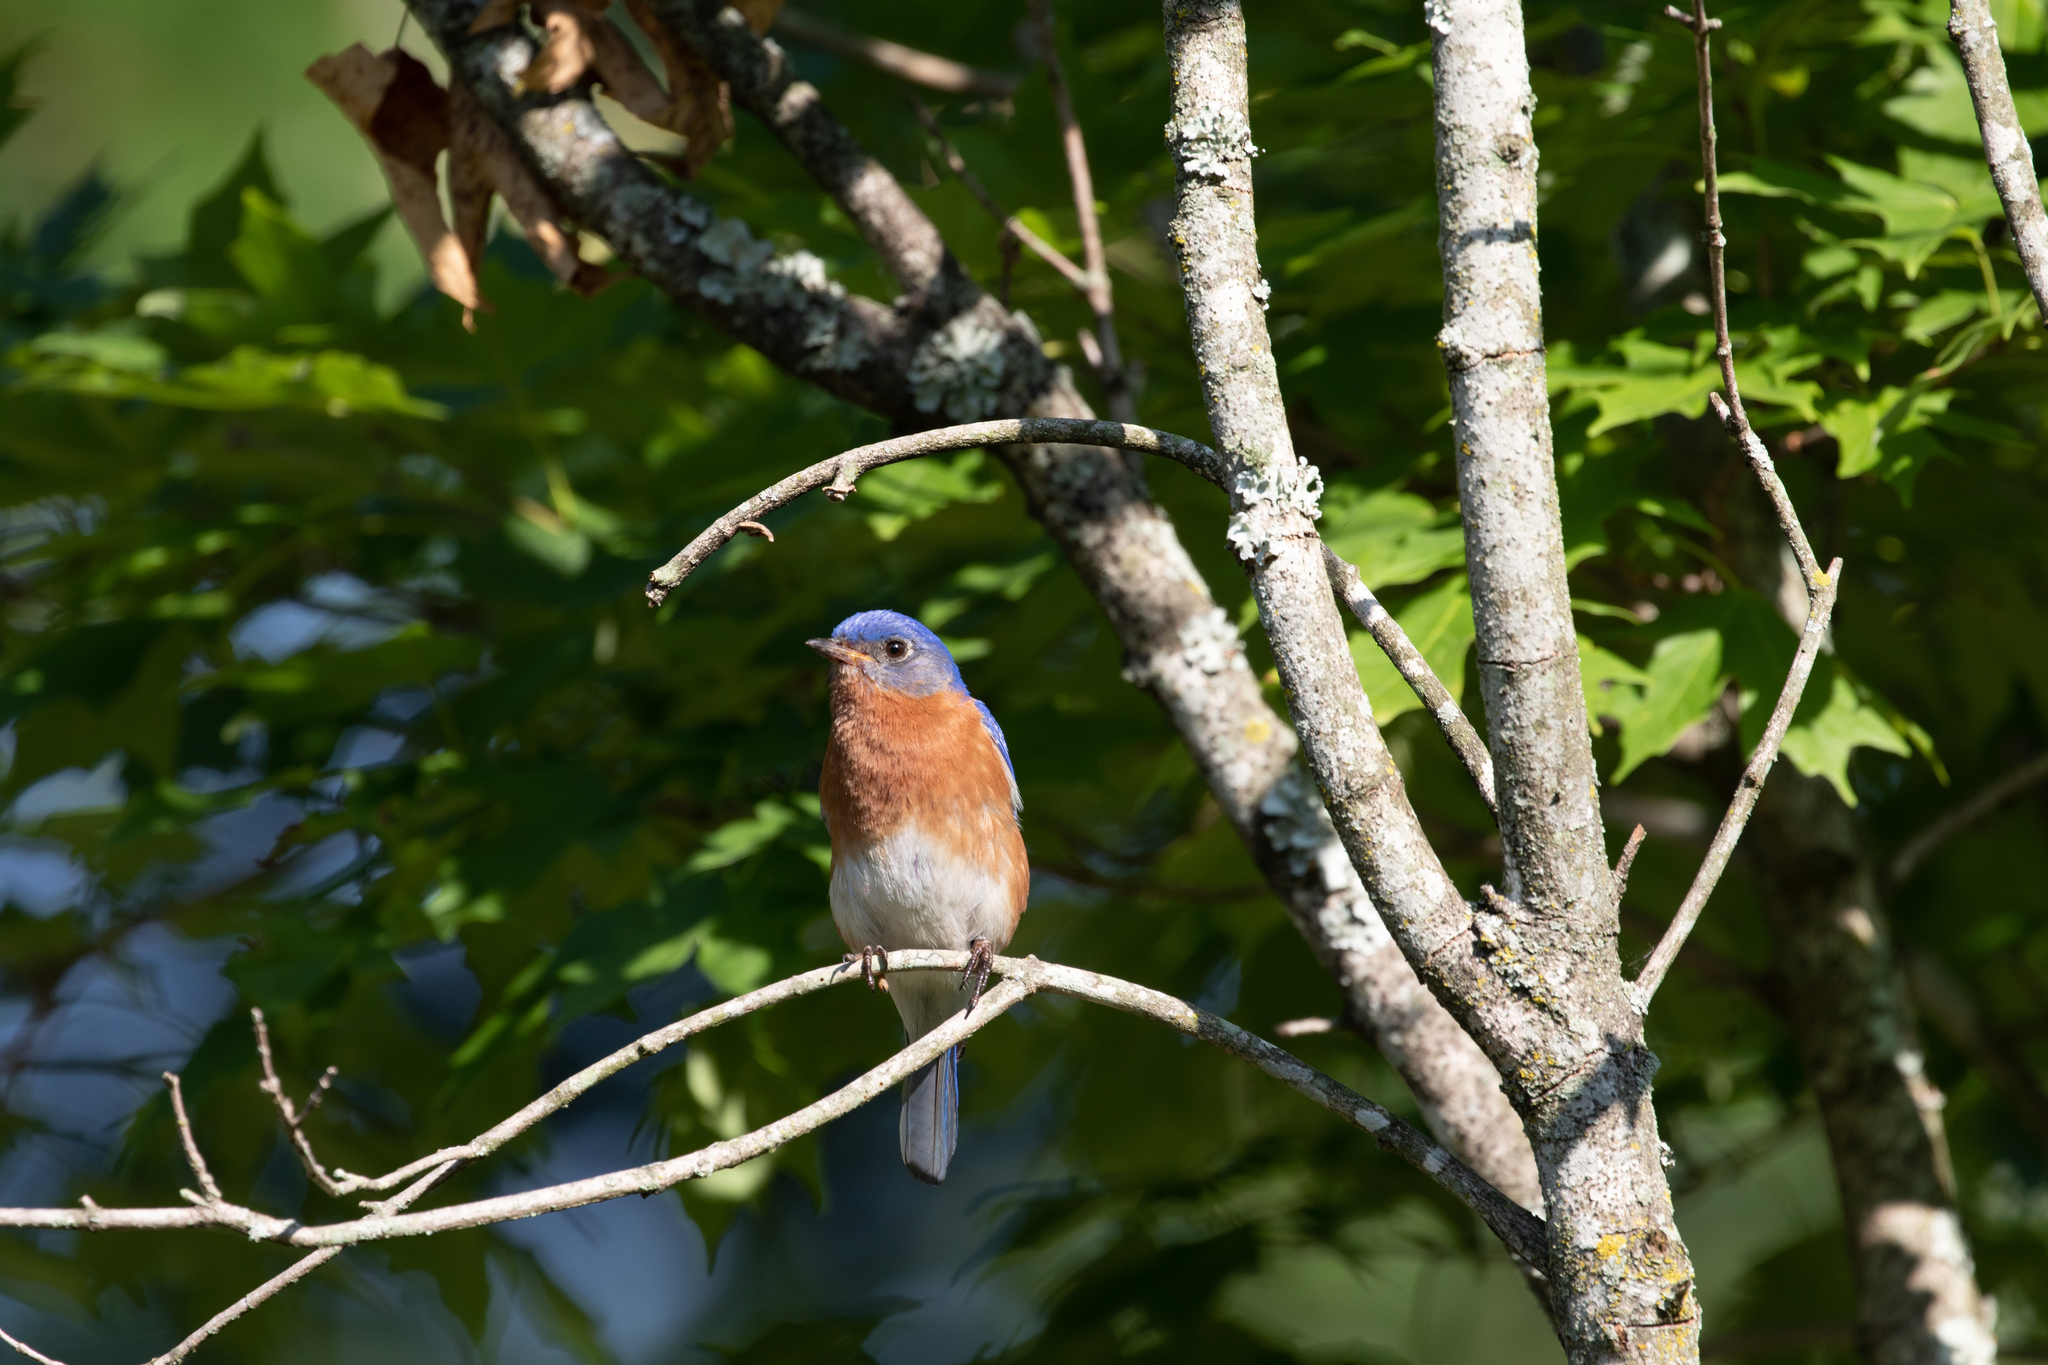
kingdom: Animalia
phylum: Chordata
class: Aves
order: Passeriformes
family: Turdidae
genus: Sialia
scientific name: Sialia sialis
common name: Eastern bluebird
